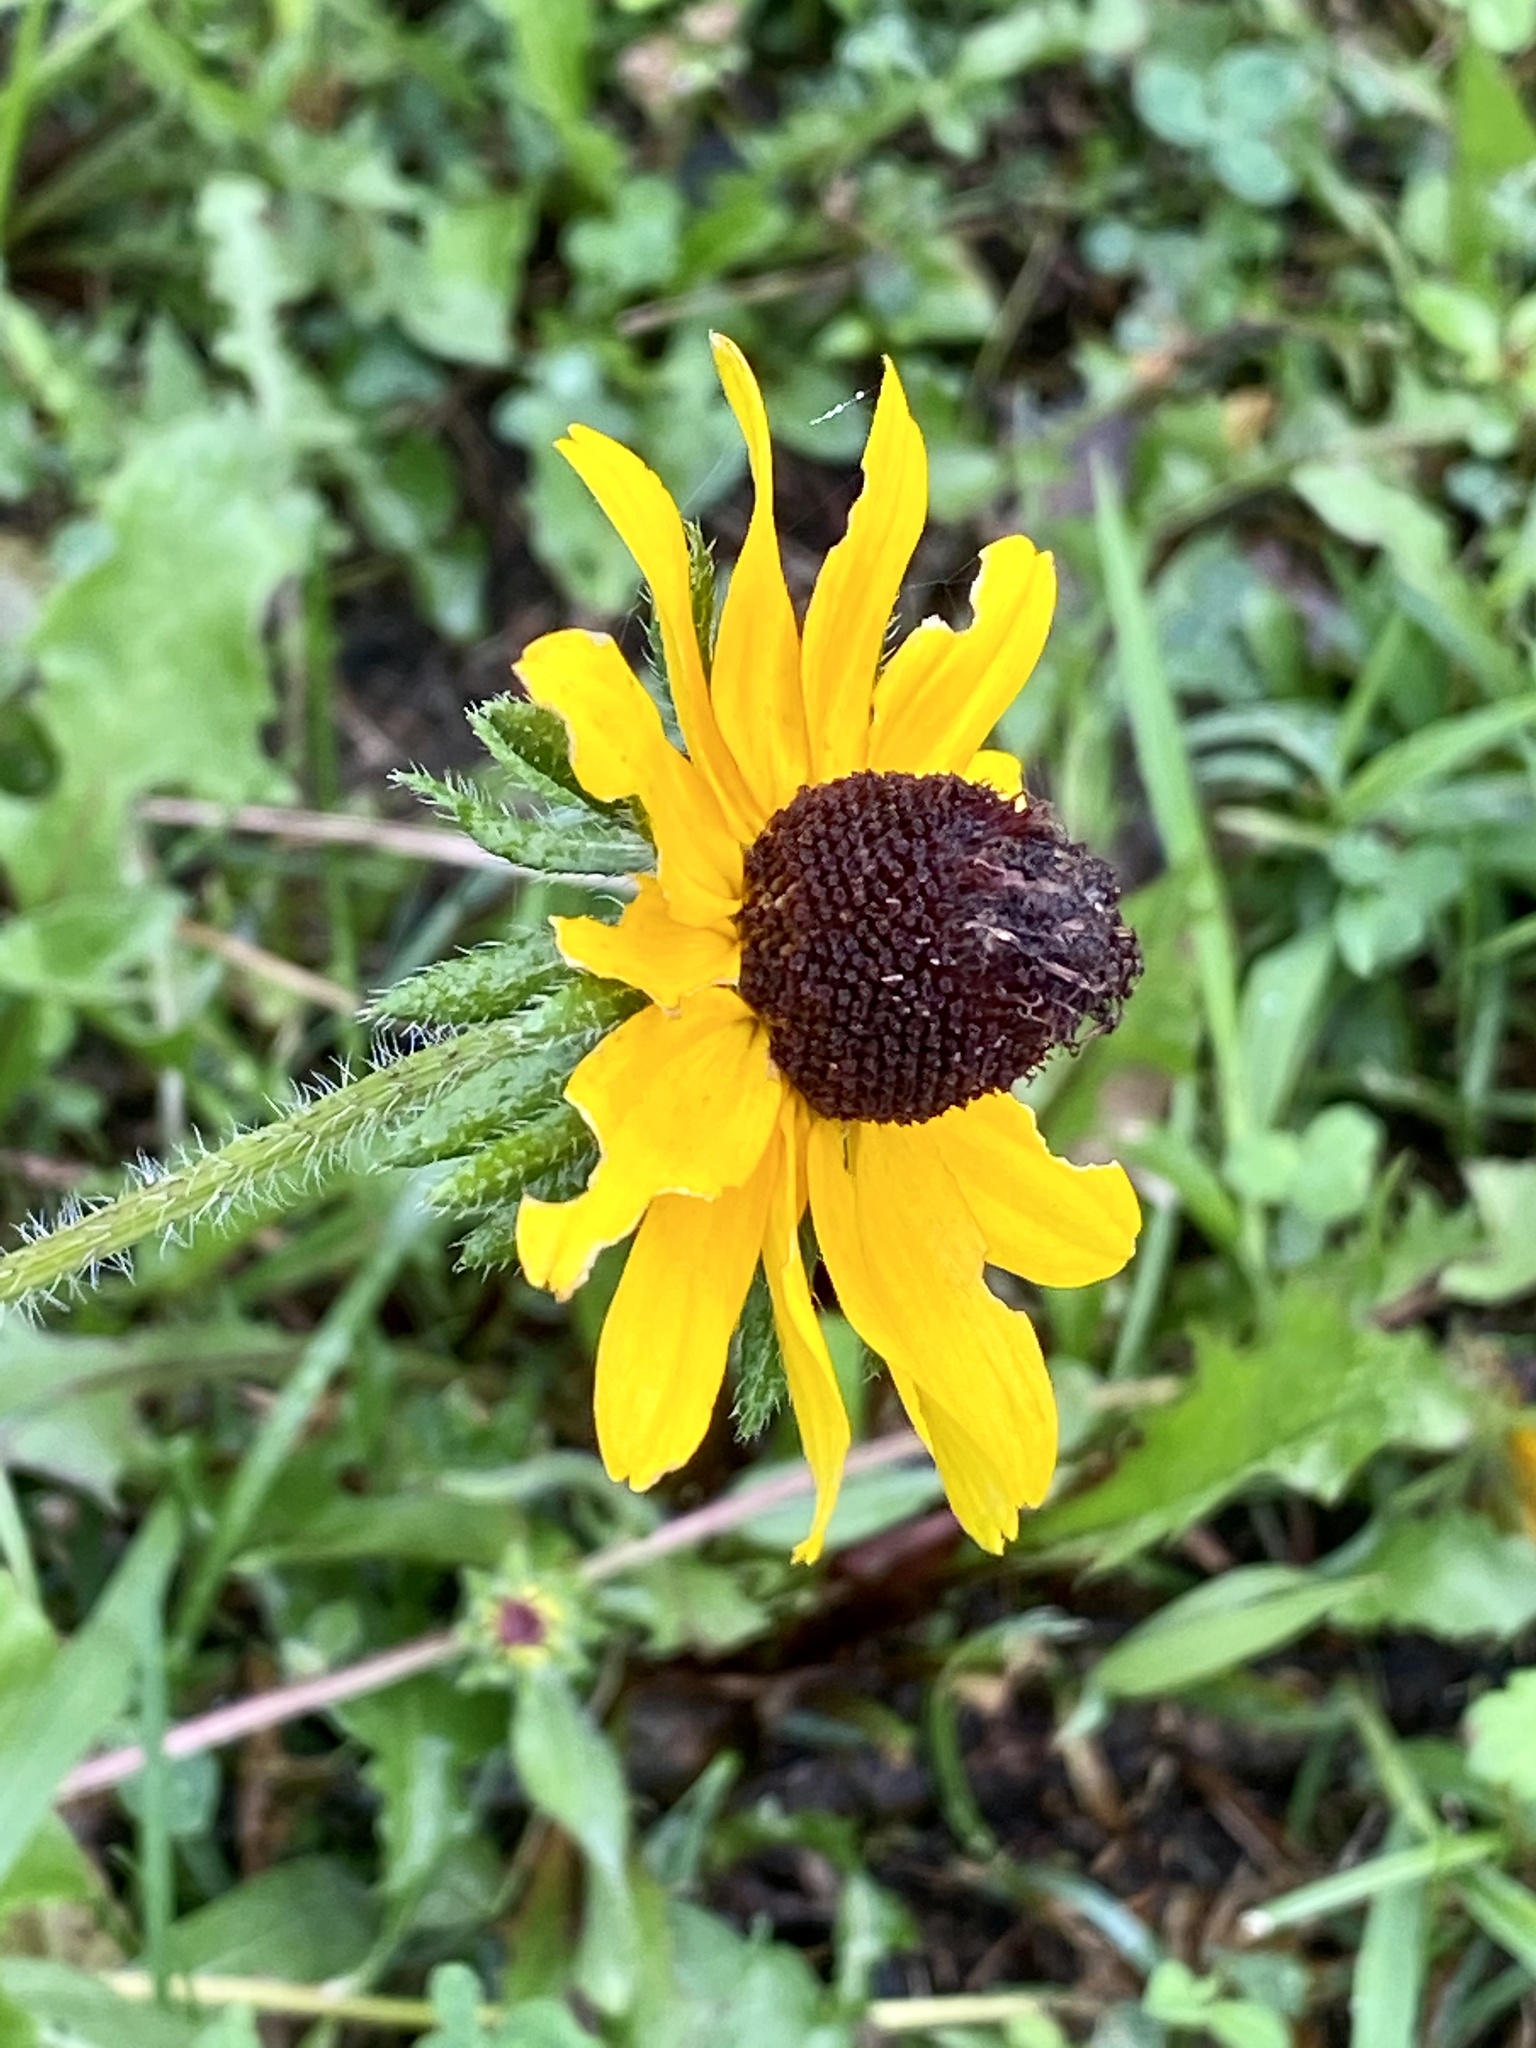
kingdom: Plantae
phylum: Tracheophyta
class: Magnoliopsida
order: Asterales
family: Asteraceae
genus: Rudbeckia
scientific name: Rudbeckia hirta
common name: Black-eyed-susan
